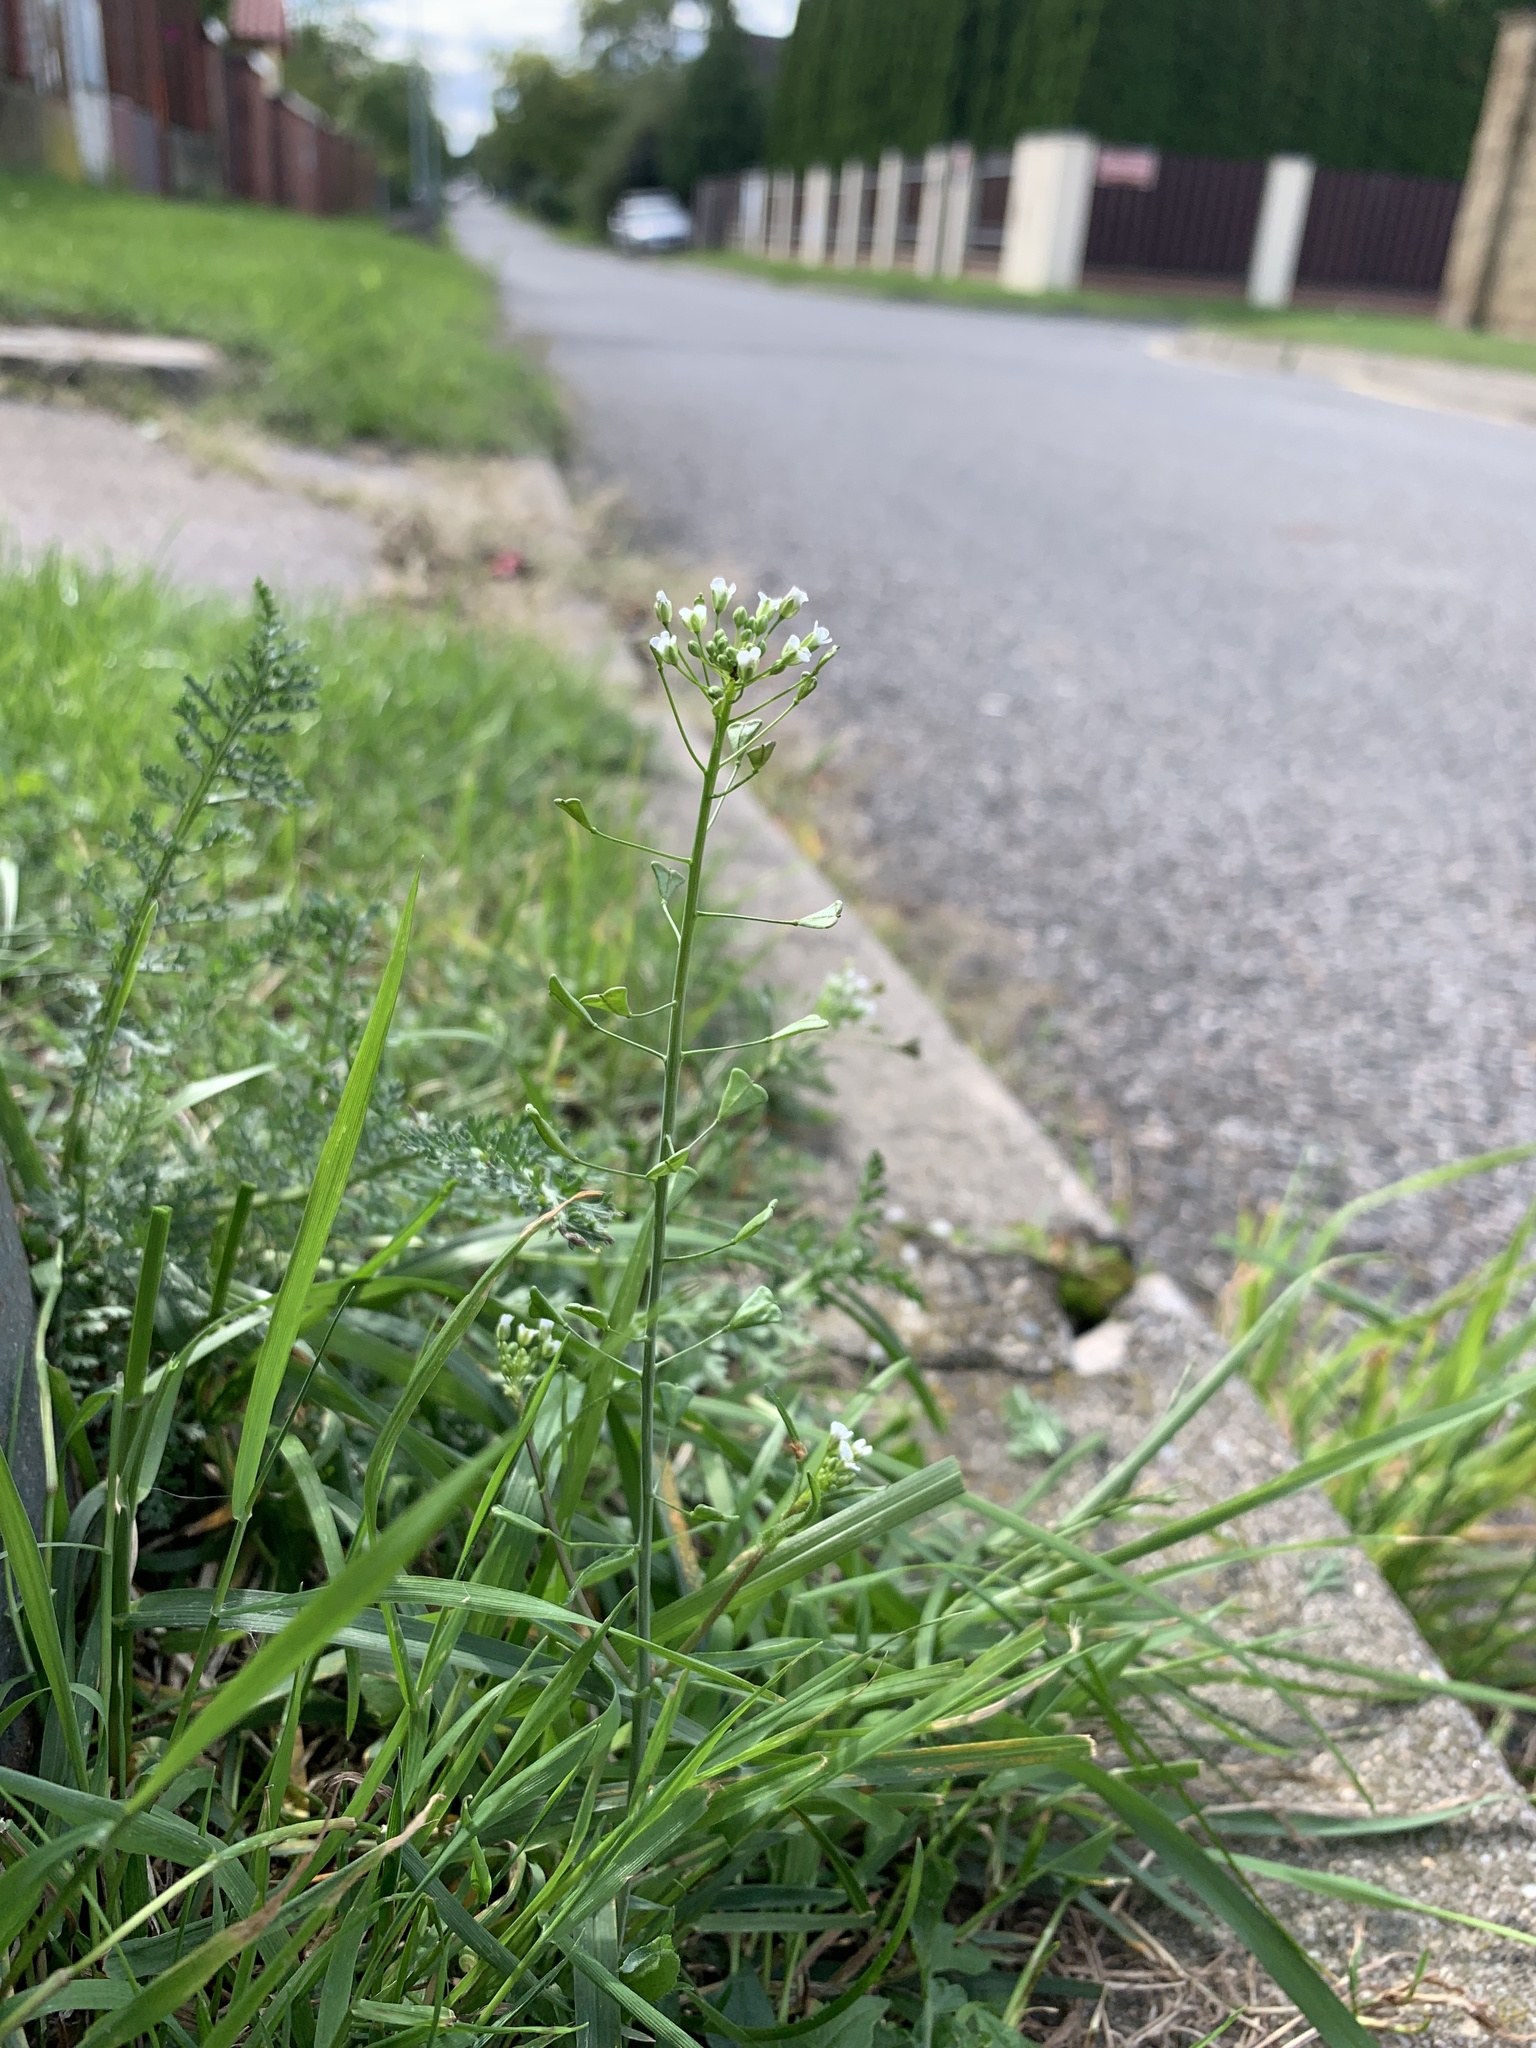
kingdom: Plantae
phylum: Tracheophyta
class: Magnoliopsida
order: Brassicales
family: Brassicaceae
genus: Capsella
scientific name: Capsella bursa-pastoris
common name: Shepherd's purse
